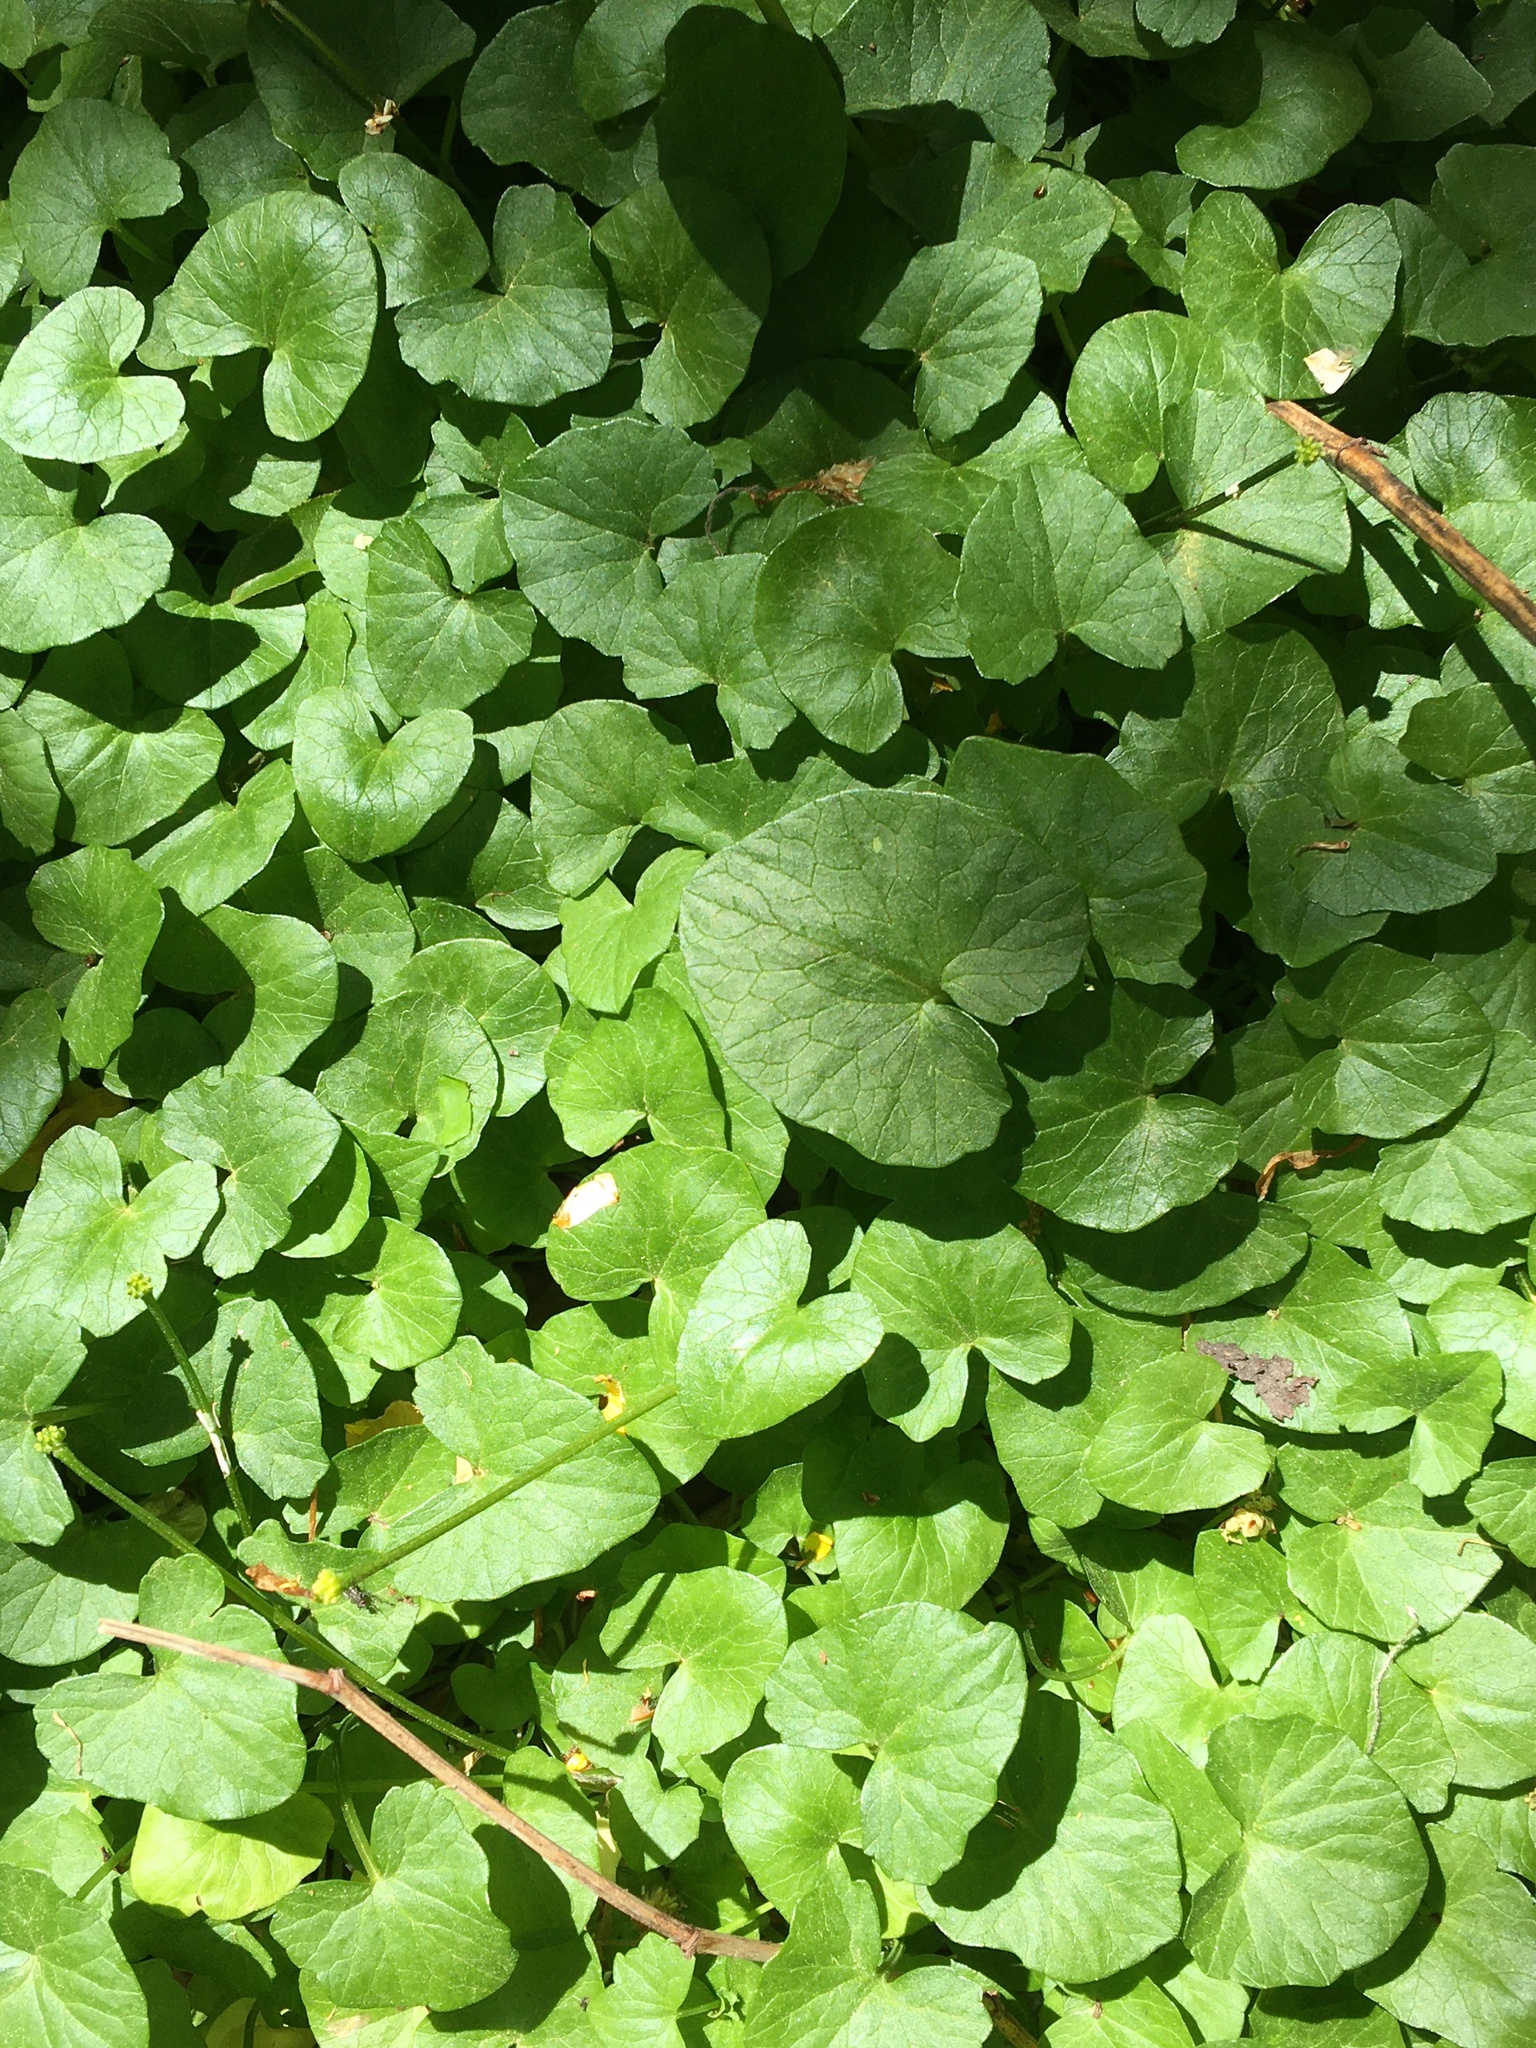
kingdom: Plantae
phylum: Tracheophyta
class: Magnoliopsida
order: Ranunculales
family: Ranunculaceae
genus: Ficaria
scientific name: Ficaria verna
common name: Lesser celandine
